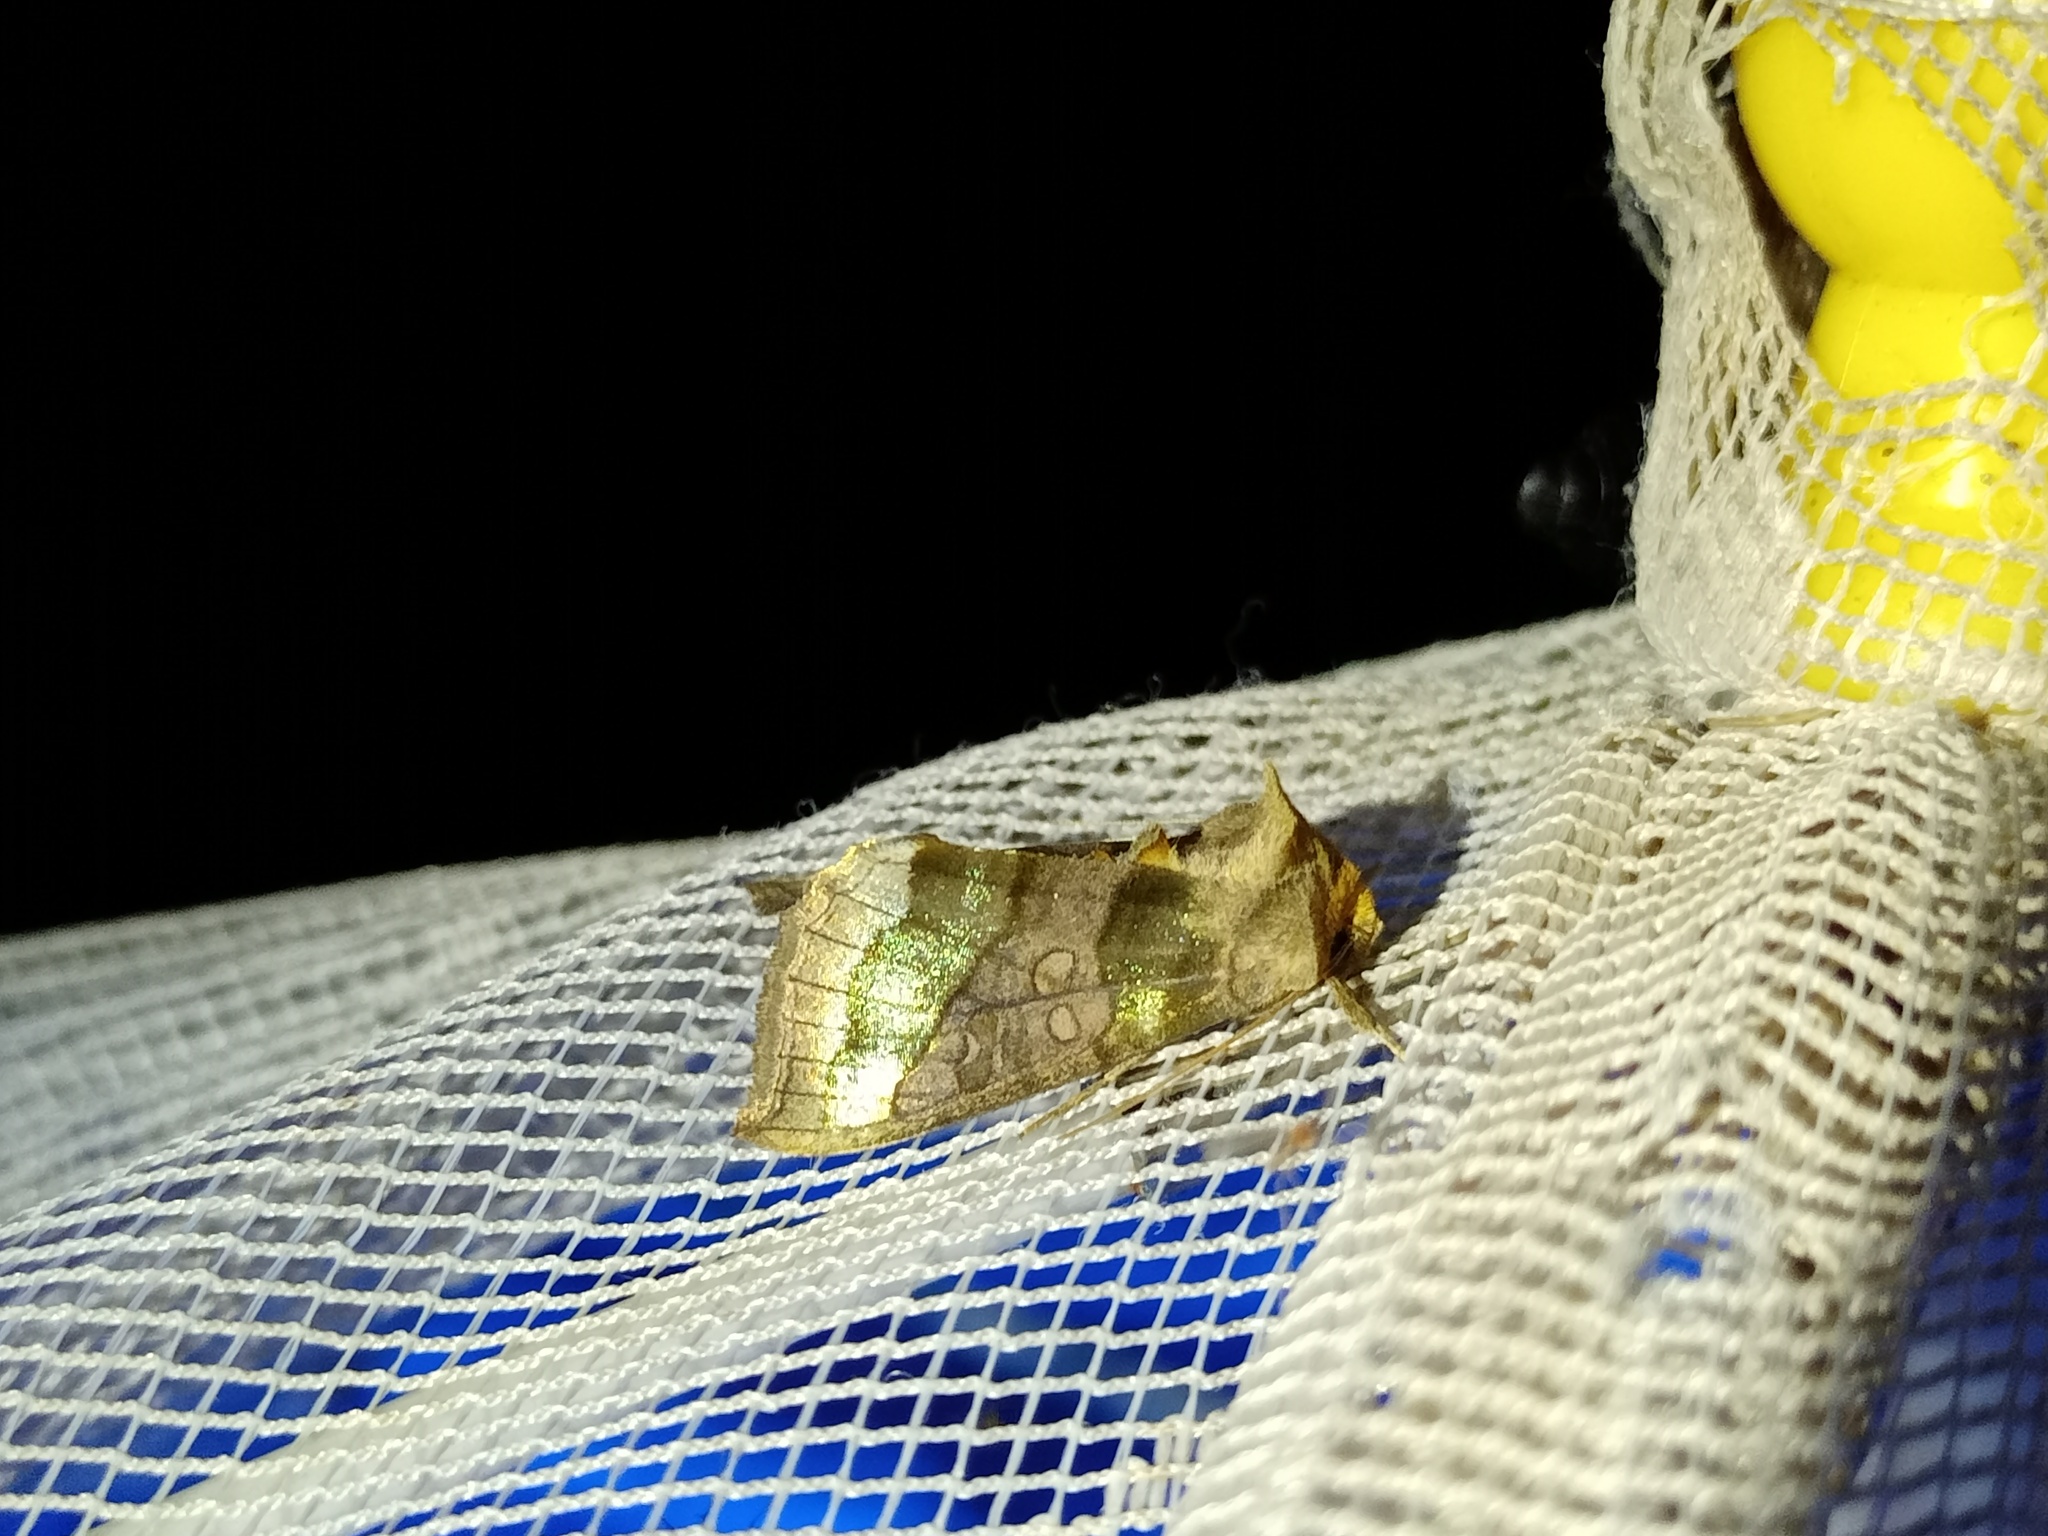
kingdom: Animalia
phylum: Arthropoda
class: Insecta
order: Lepidoptera
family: Noctuidae
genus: Diachrysia
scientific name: Diachrysia chrysitis
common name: Burnished brass
